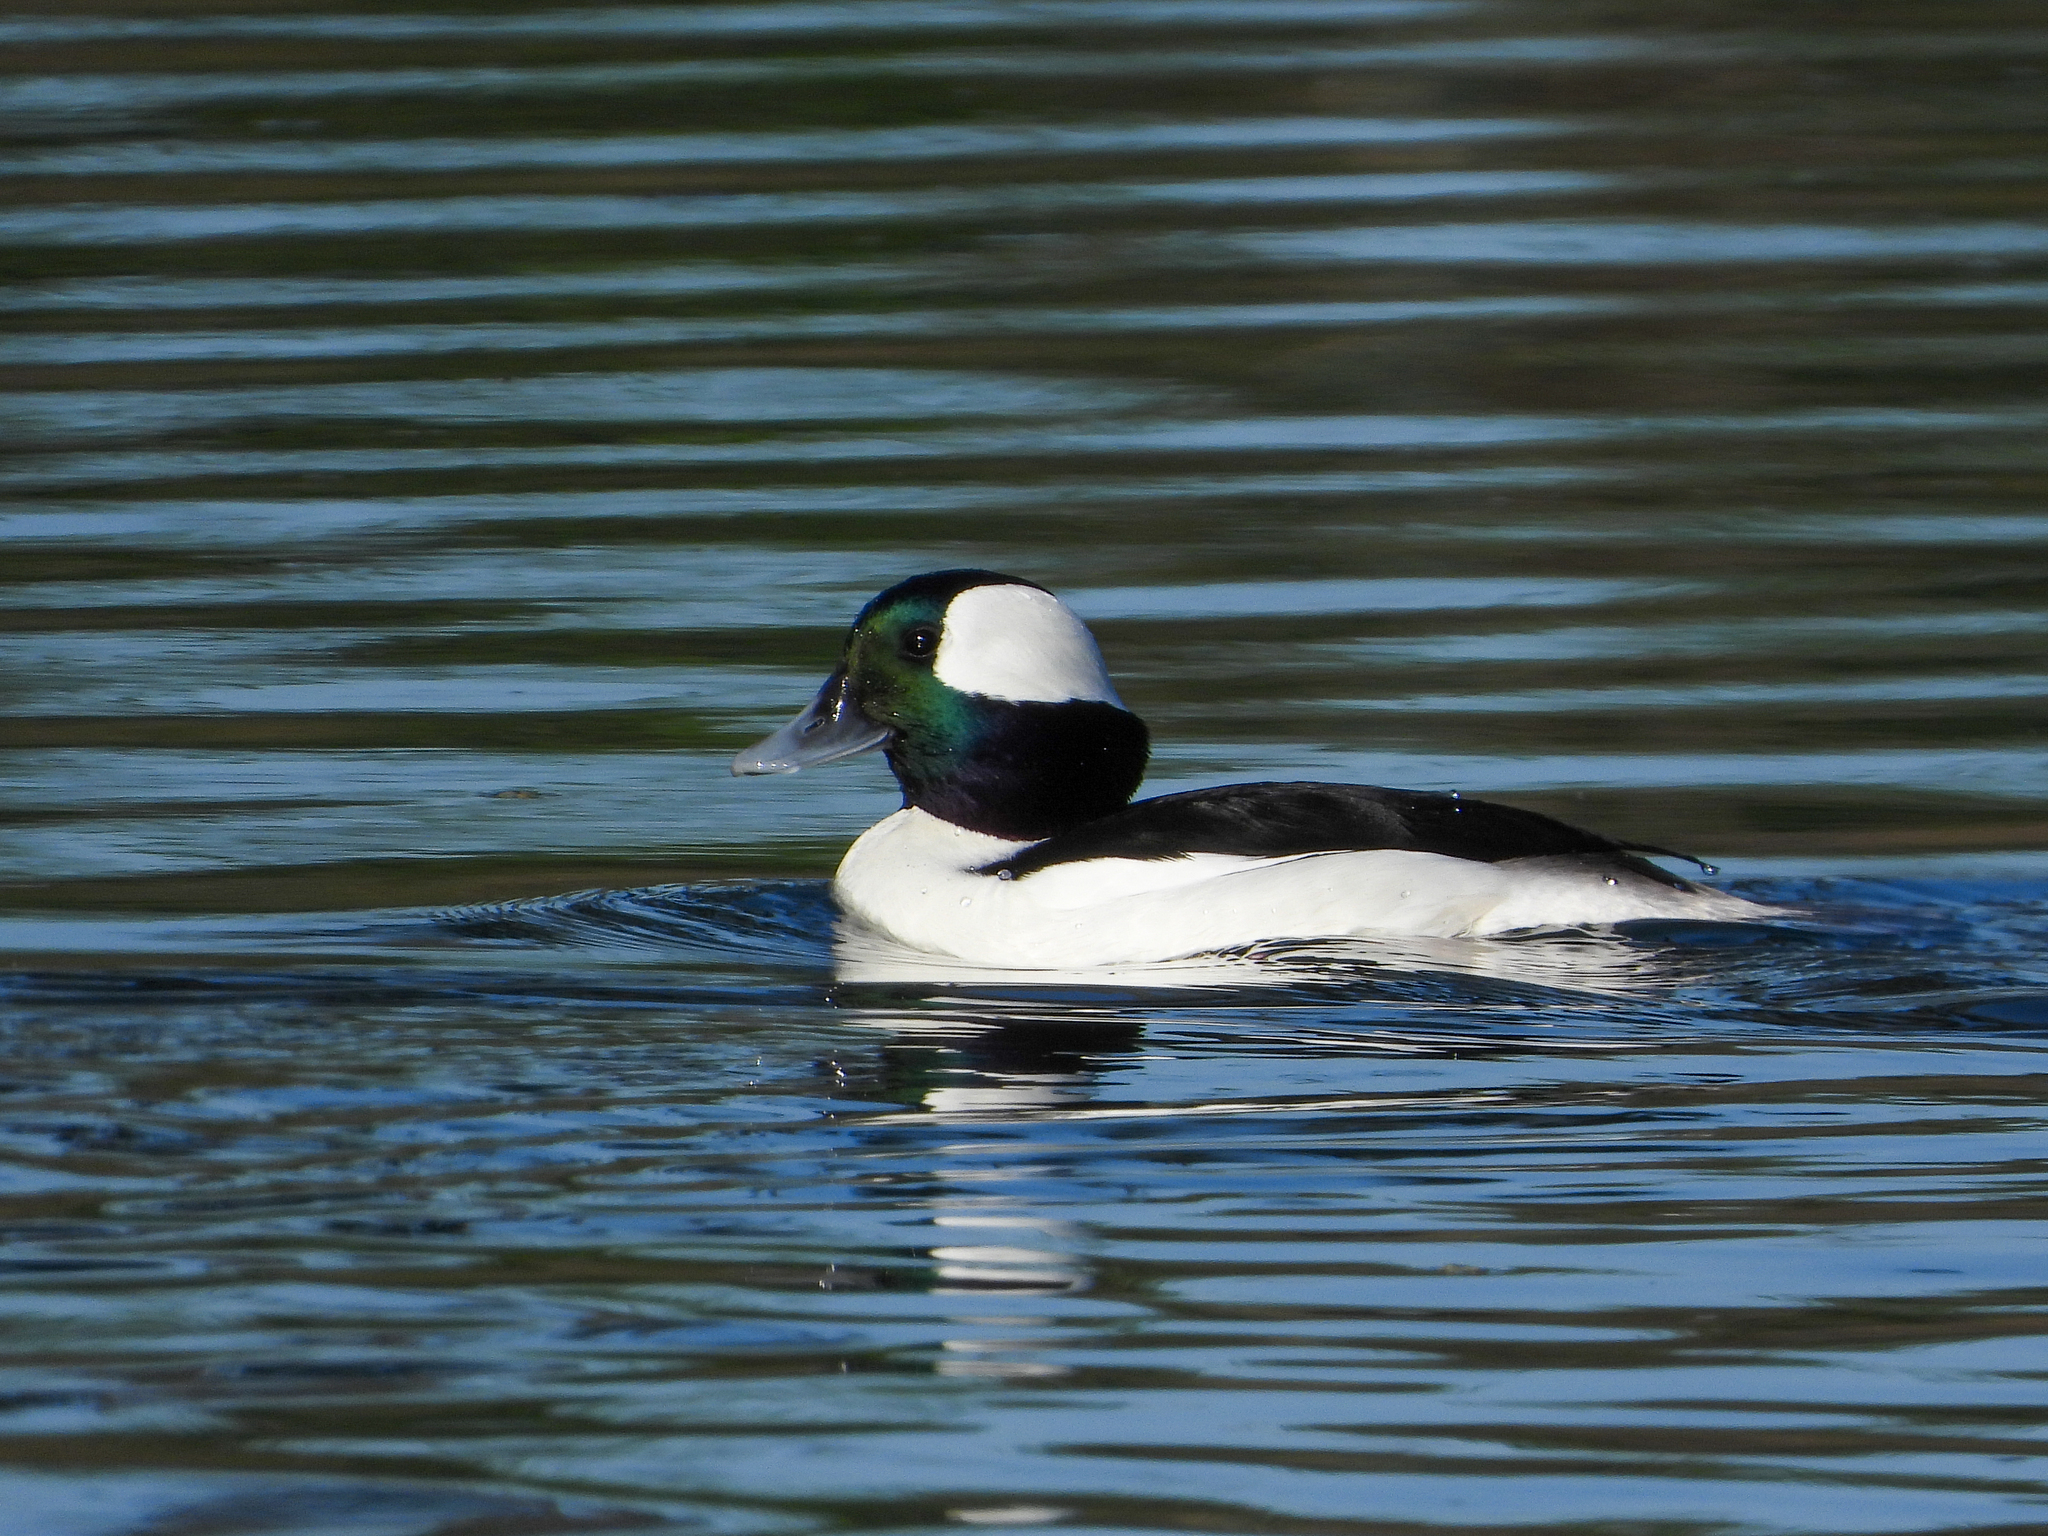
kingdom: Animalia
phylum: Chordata
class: Aves
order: Anseriformes
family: Anatidae
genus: Bucephala
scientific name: Bucephala albeola
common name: Bufflehead
